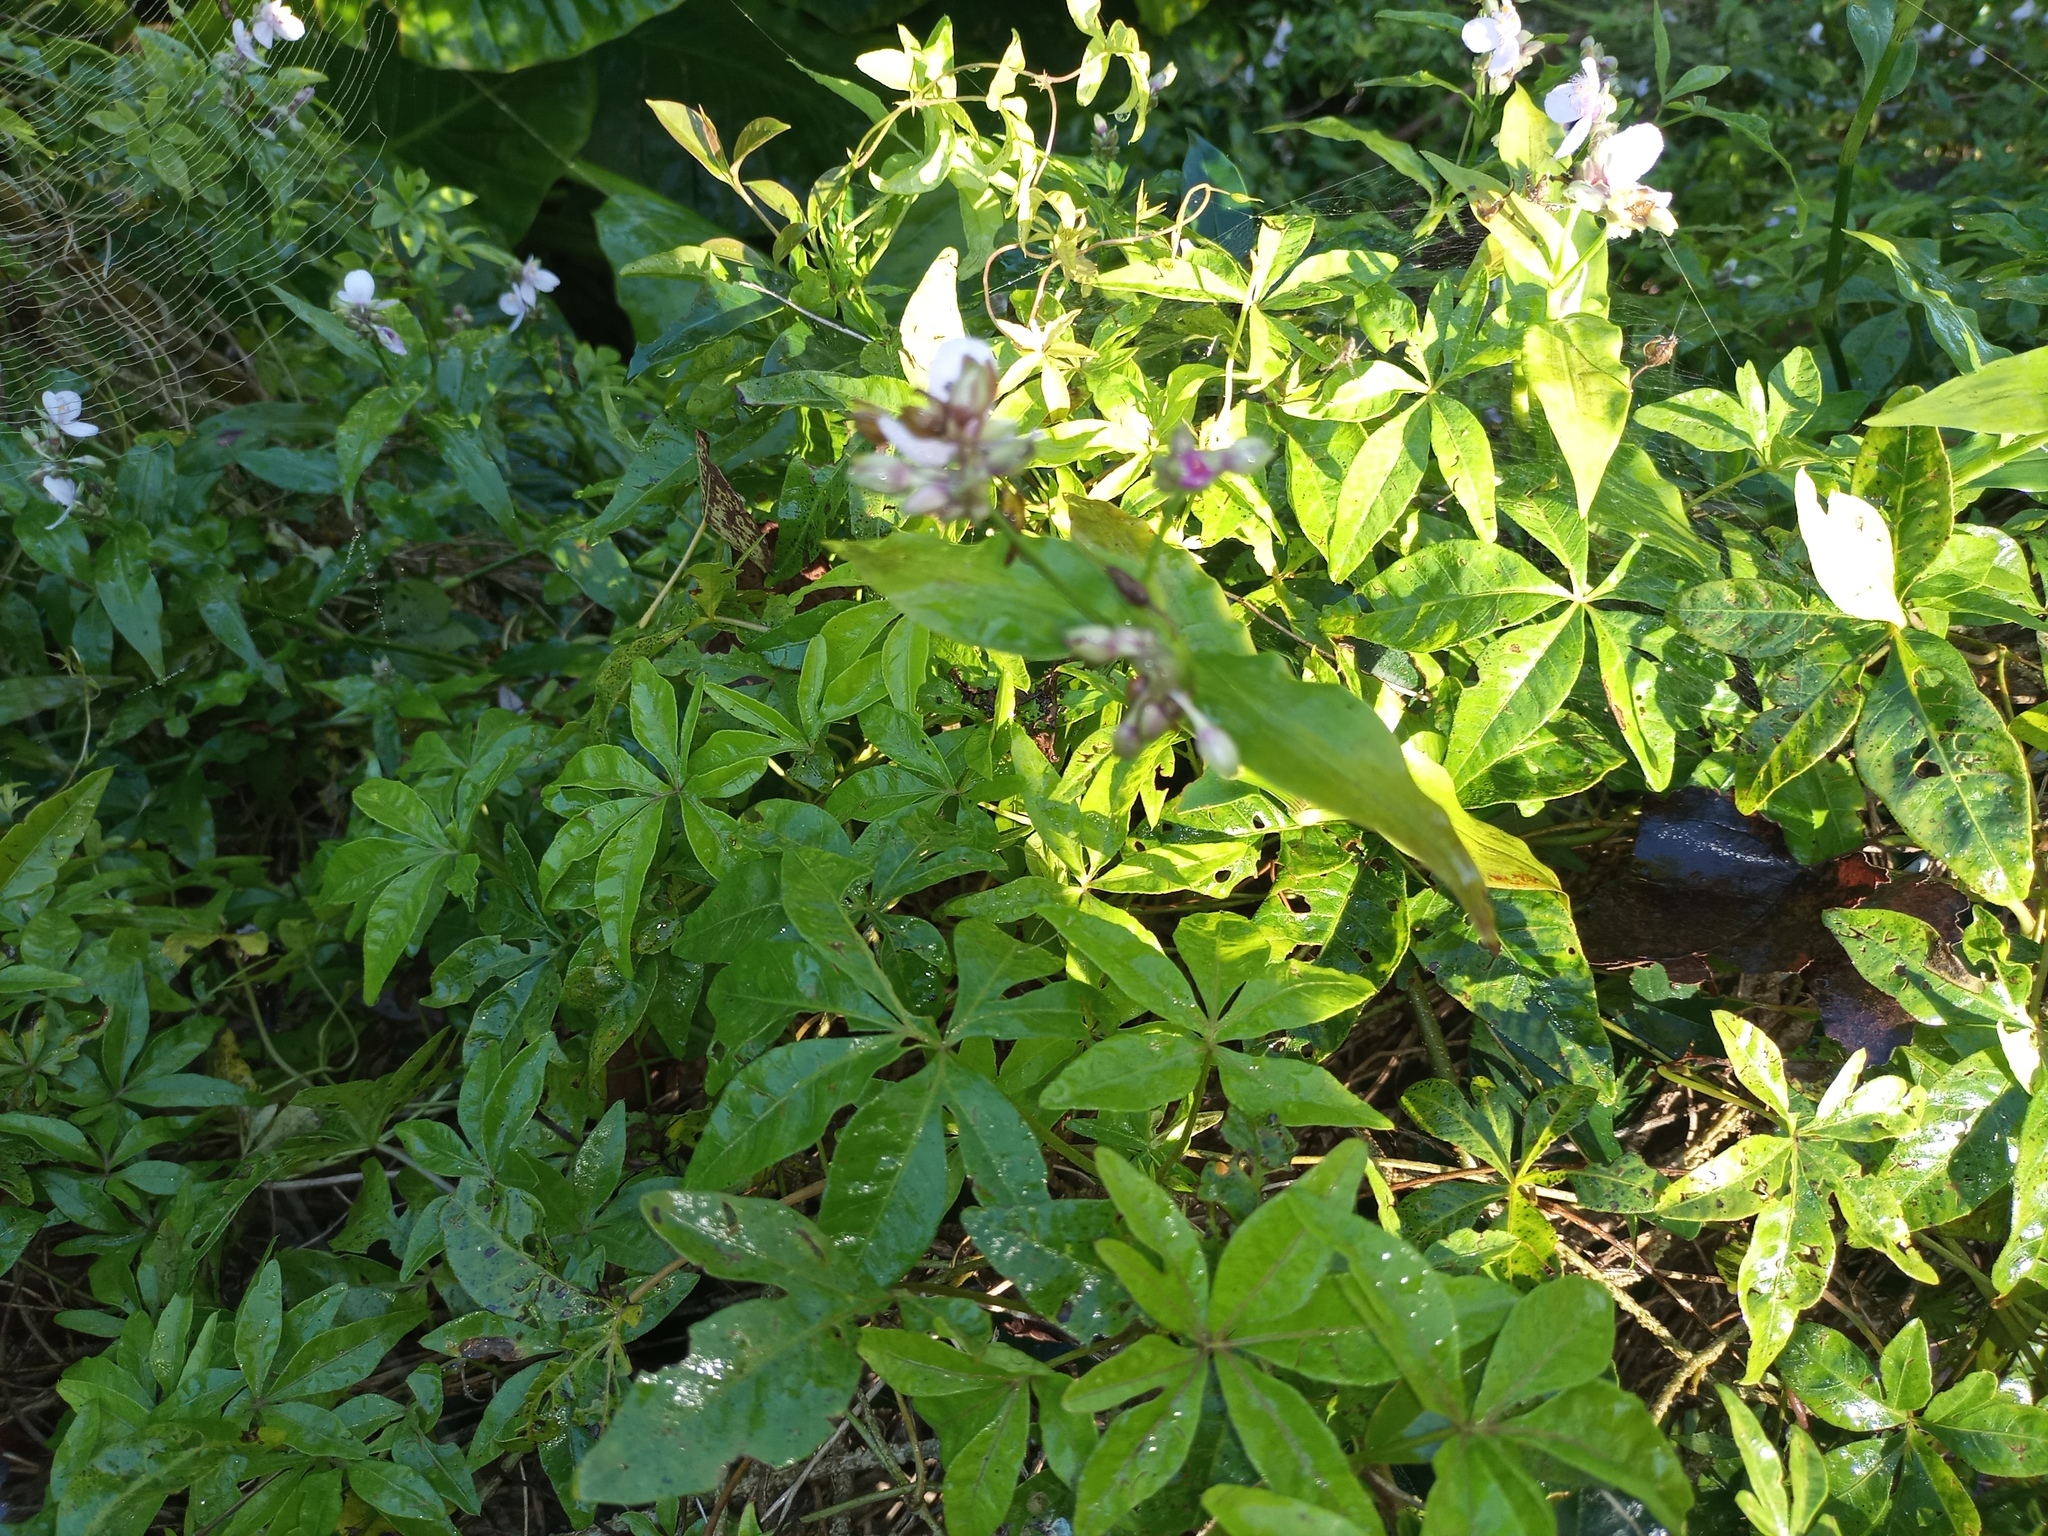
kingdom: Plantae
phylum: Tracheophyta
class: Magnoliopsida
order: Solanales
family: Convolvulaceae
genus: Ipomoea
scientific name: Ipomoea cairica
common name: Mile a minute vine
